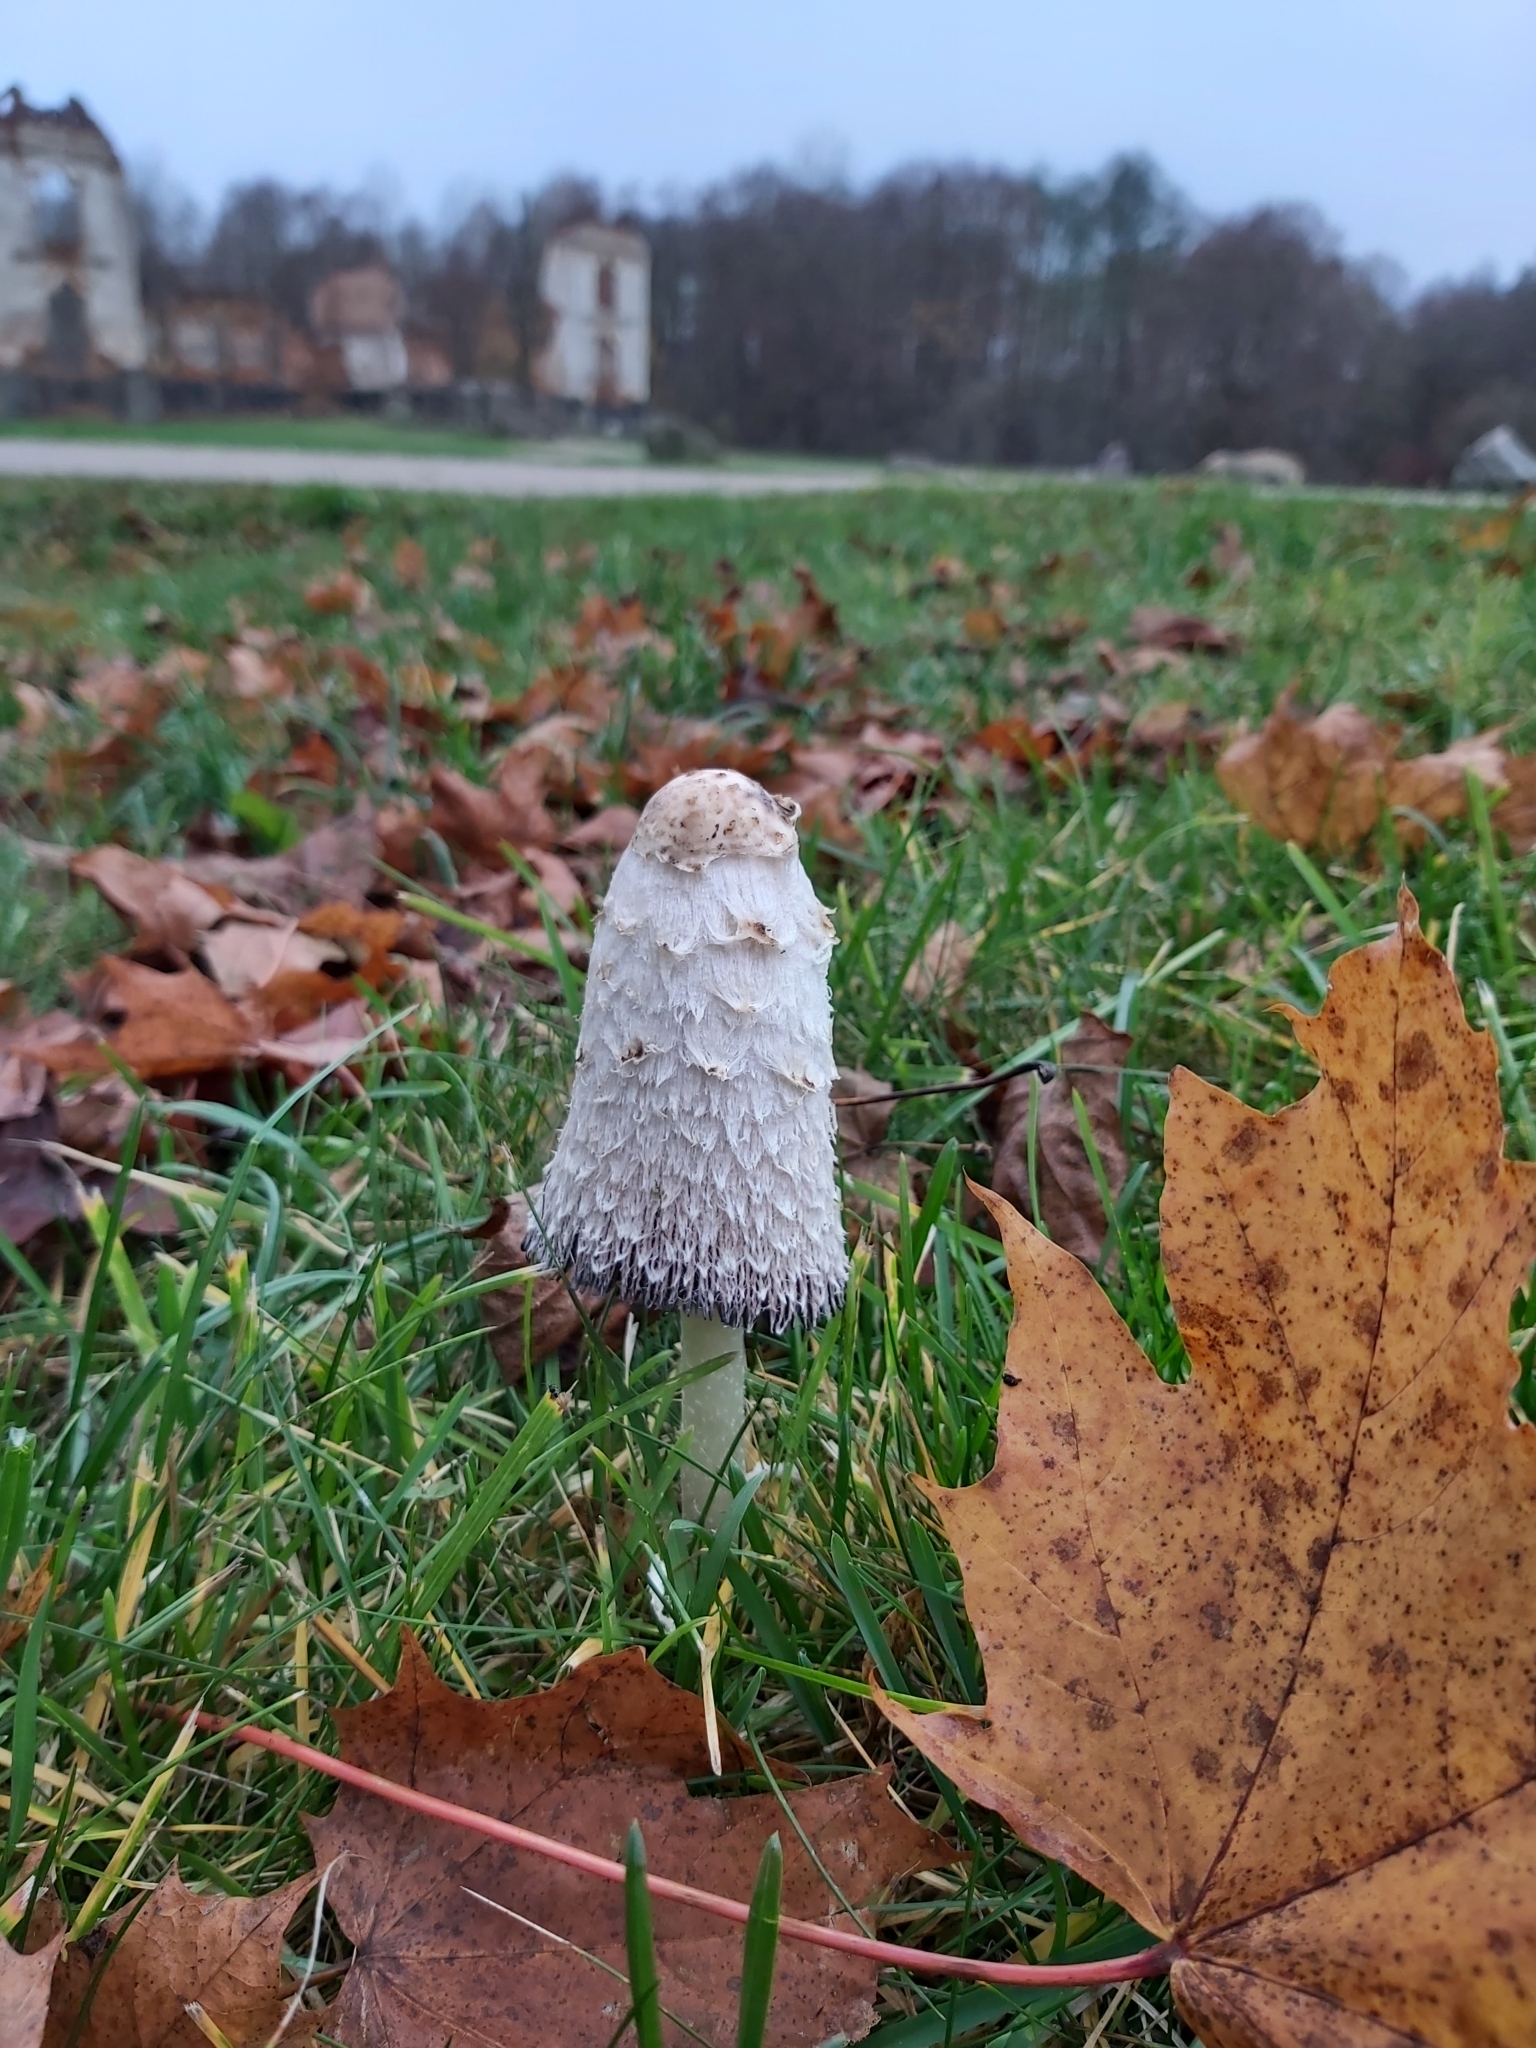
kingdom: Fungi
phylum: Basidiomycota
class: Agaricomycetes
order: Agaricales
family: Agaricaceae
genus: Coprinus
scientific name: Coprinus comatus
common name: Lawyer's wig
